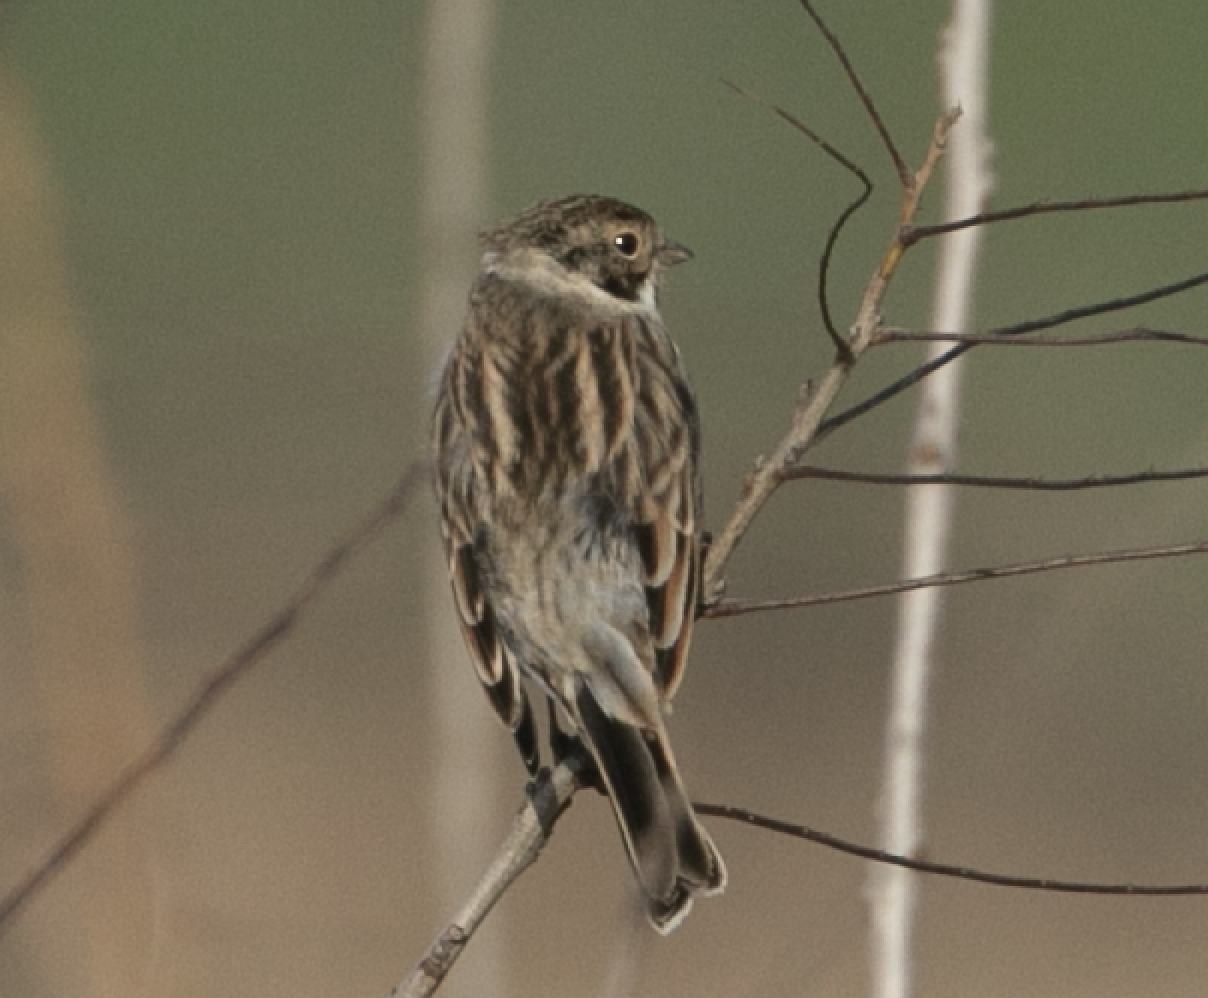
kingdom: Animalia
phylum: Chordata
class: Aves
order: Passeriformes
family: Emberizidae
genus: Emberiza
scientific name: Emberiza schoeniclus
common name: Reed bunting
